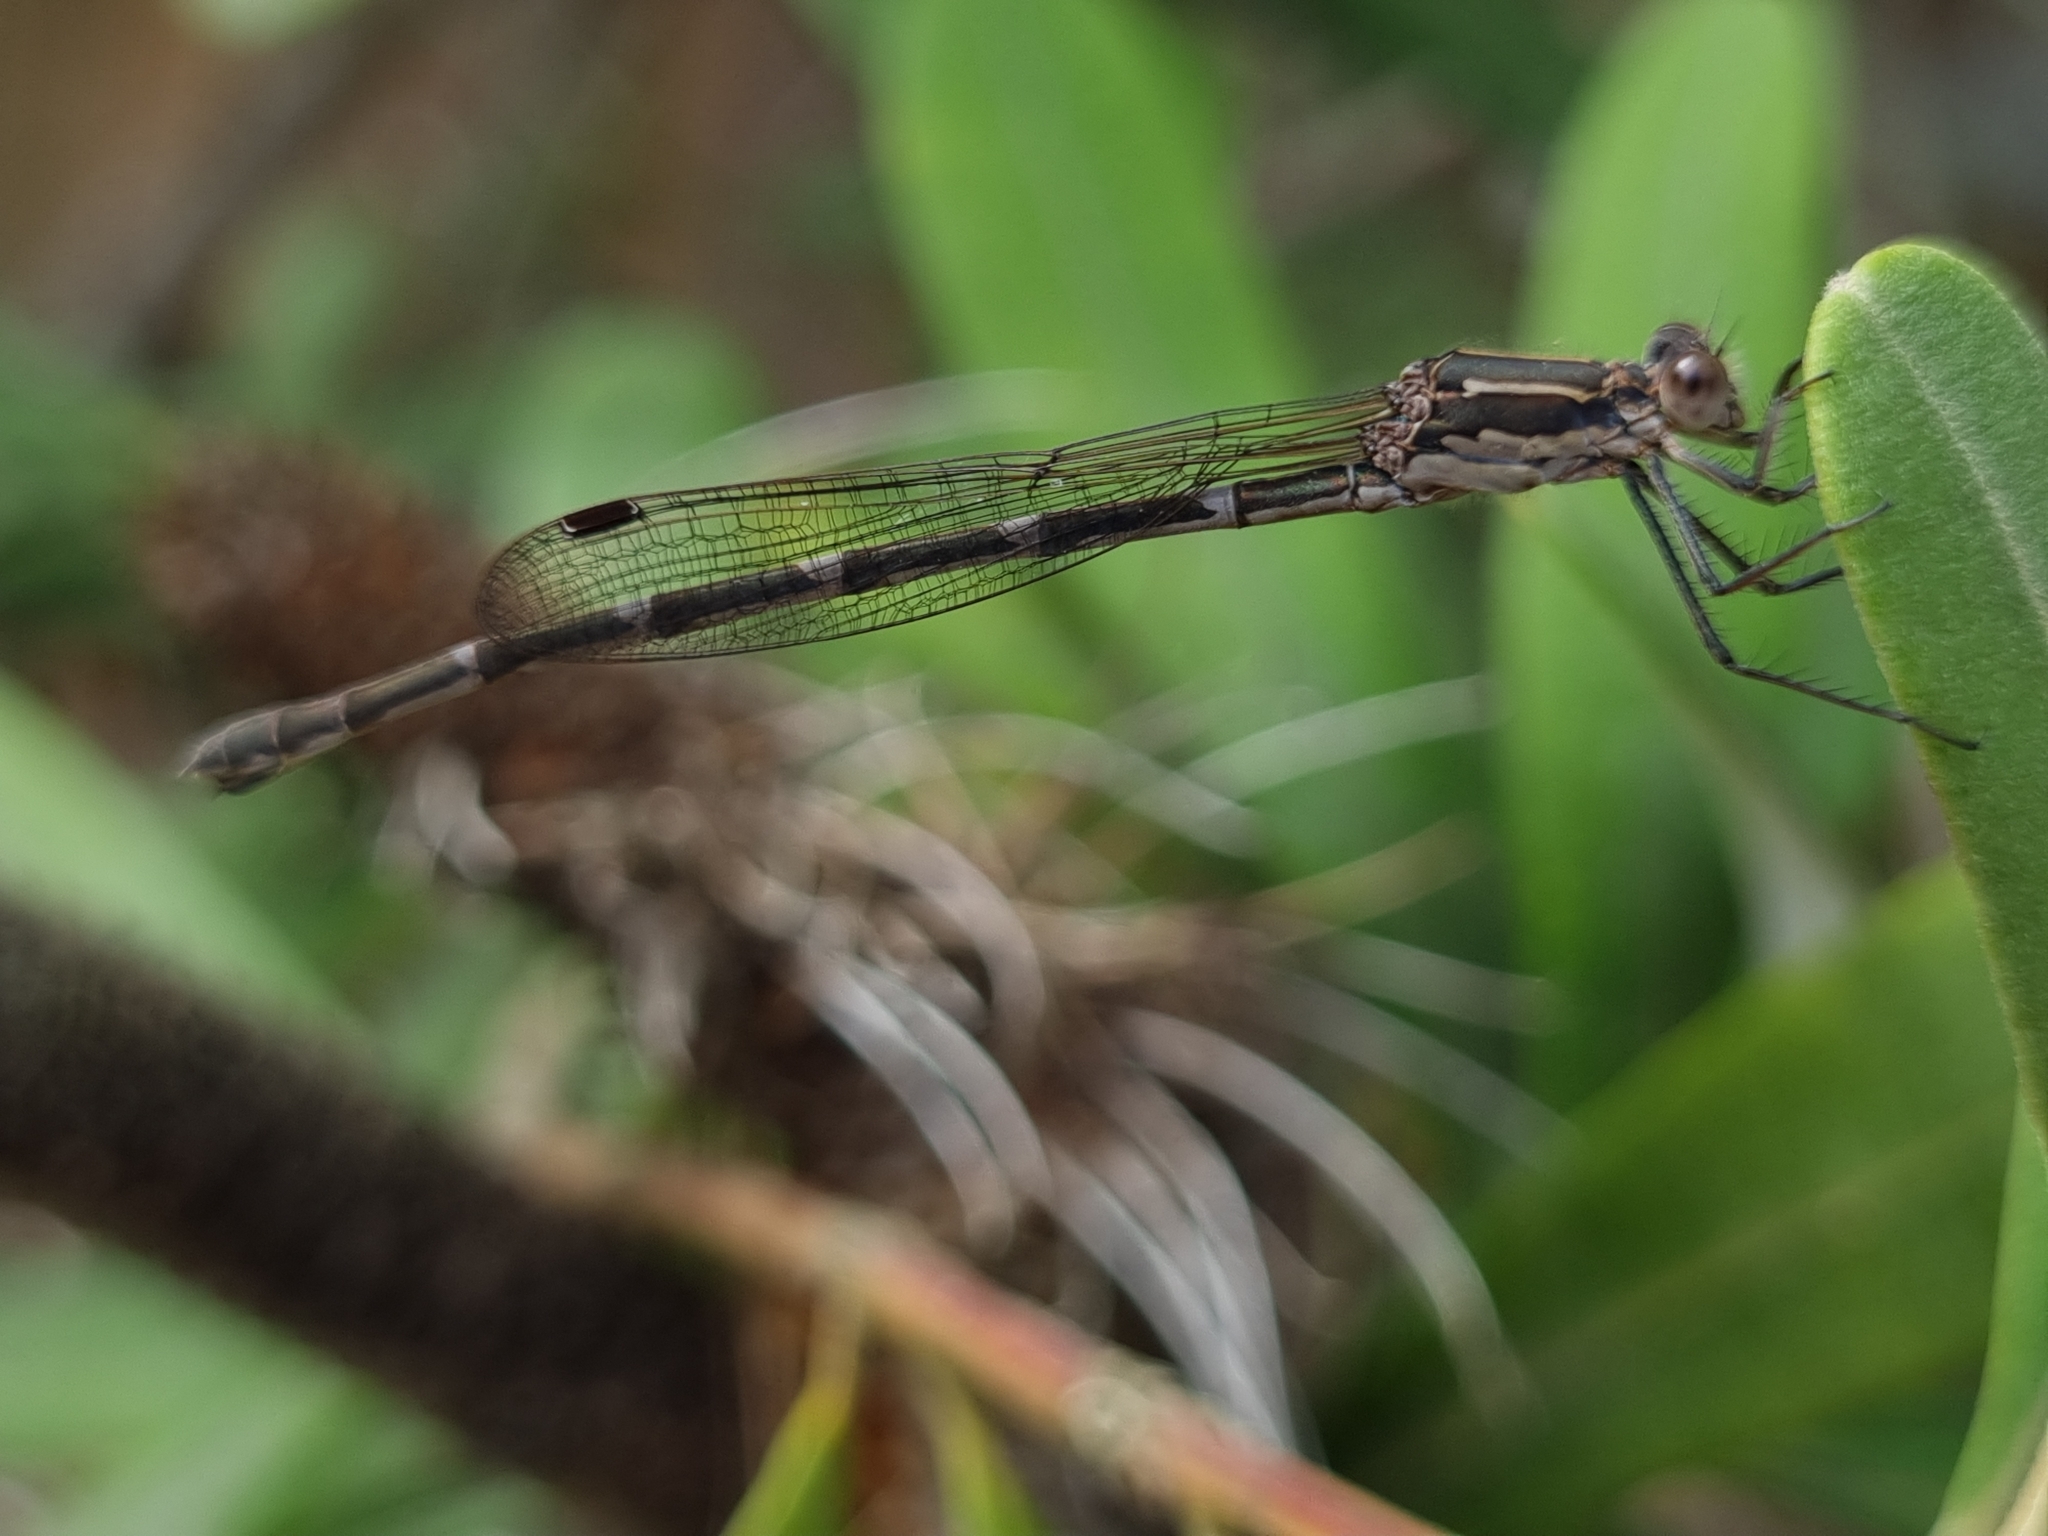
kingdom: Animalia
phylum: Arthropoda
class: Insecta
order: Odonata
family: Lestidae
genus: Austrolestes
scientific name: Austrolestes io
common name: Iota ringtail
